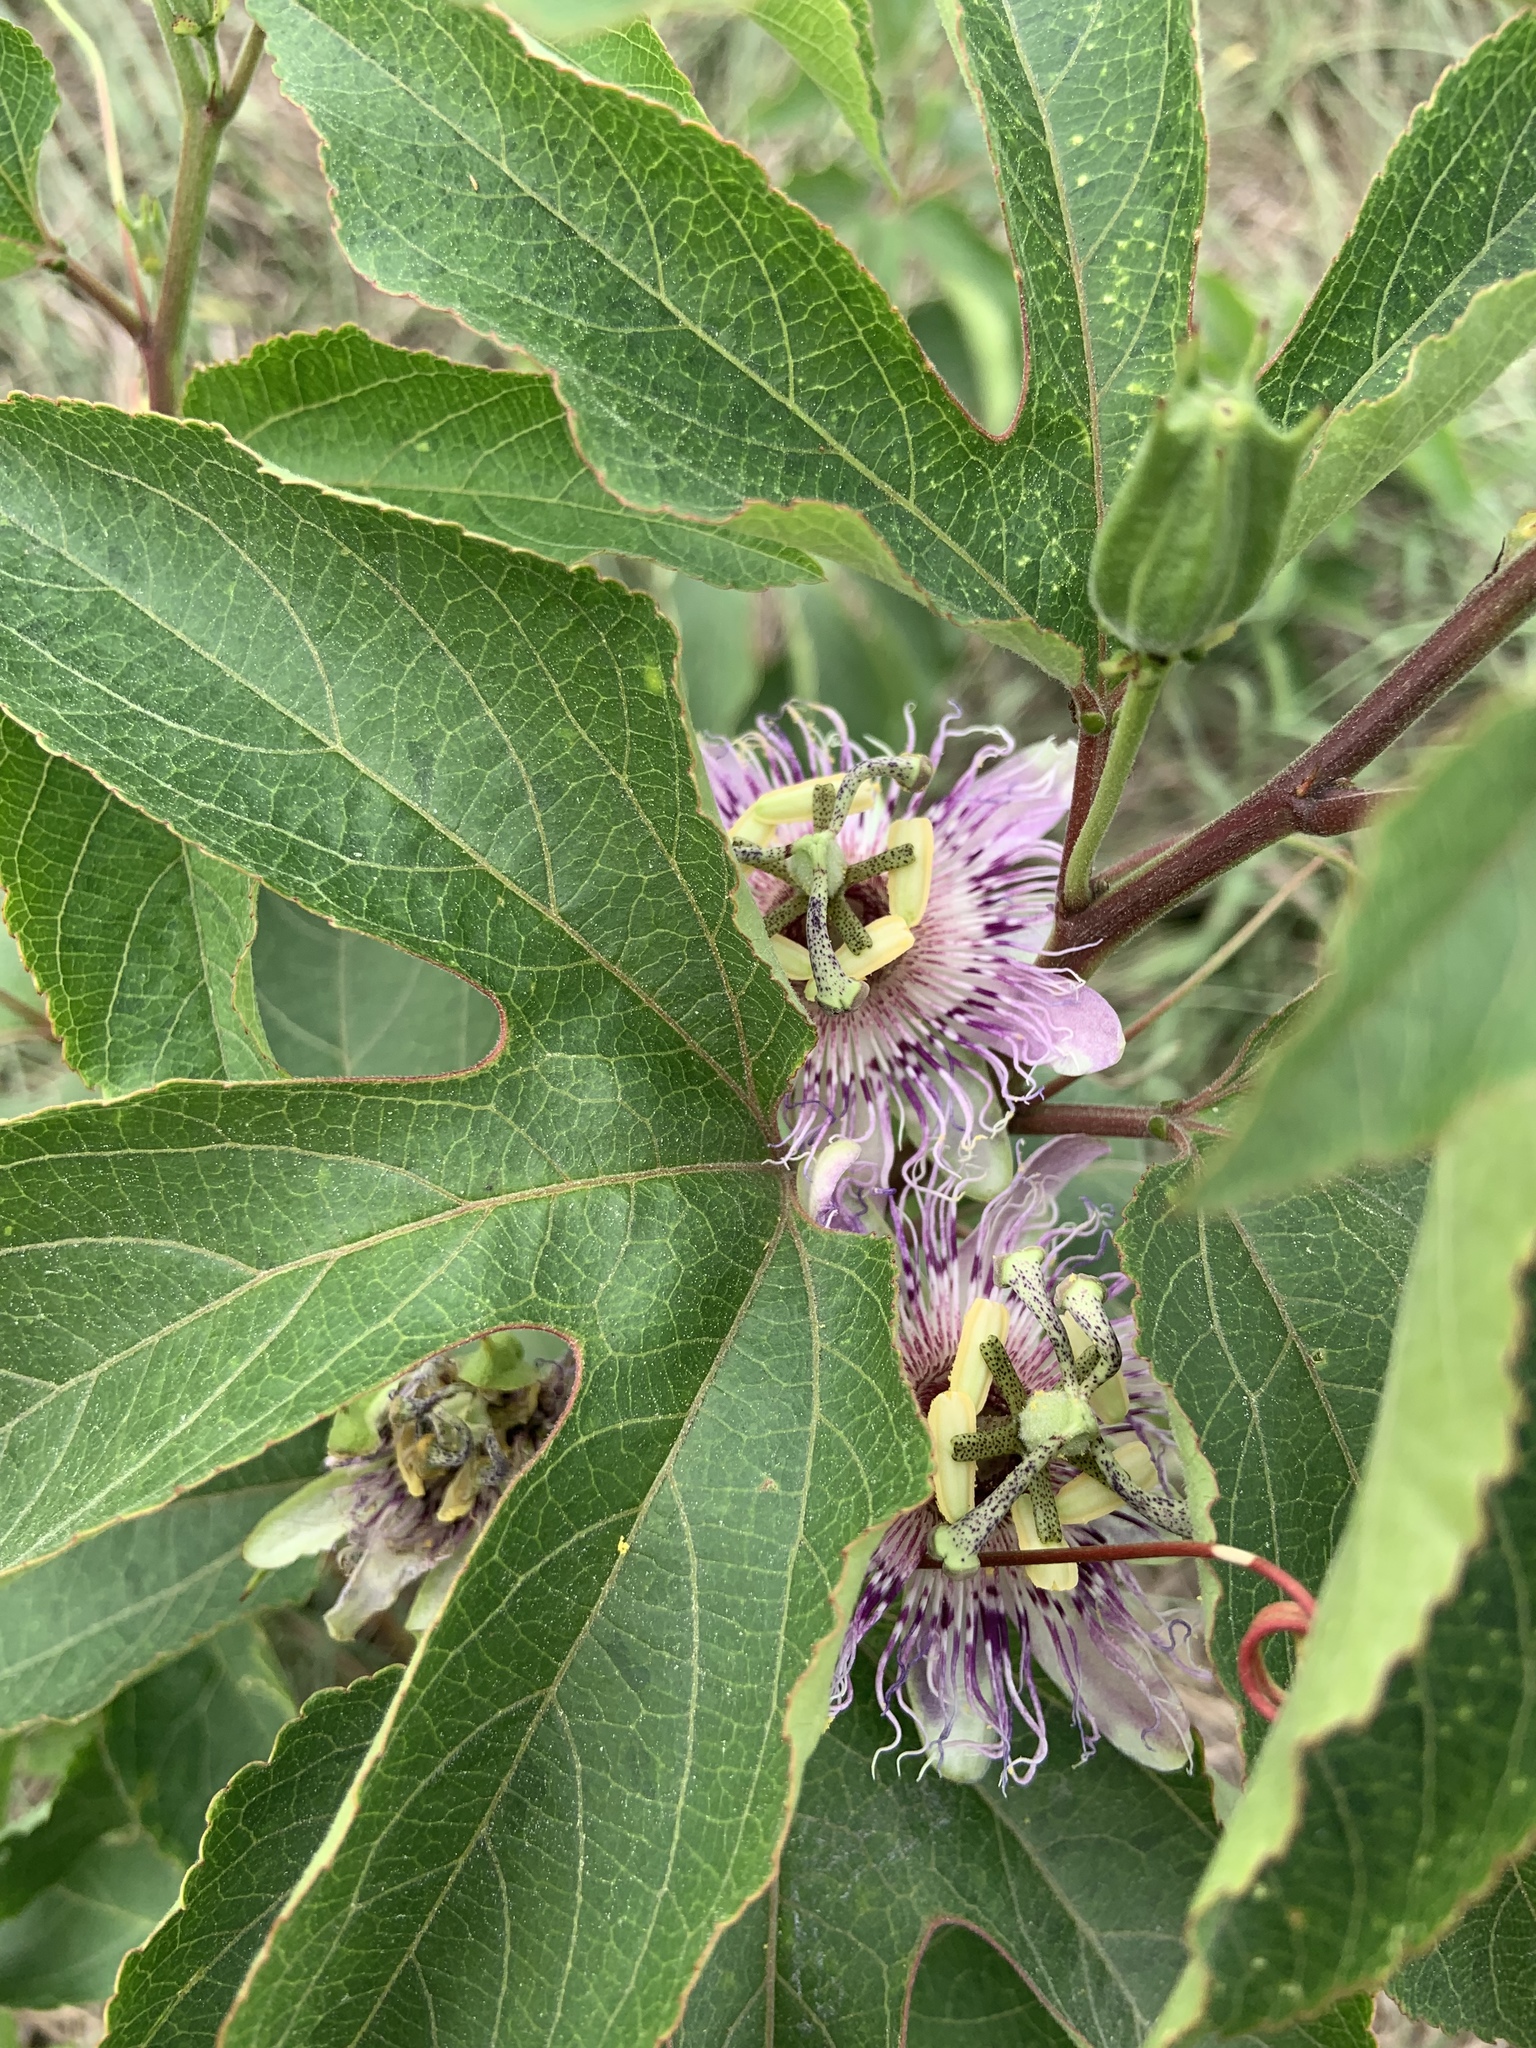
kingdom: Plantae
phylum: Tracheophyta
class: Magnoliopsida
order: Malpighiales
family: Passifloraceae
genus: Passiflora
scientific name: Passiflora incarnata
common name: Apricot-vine
